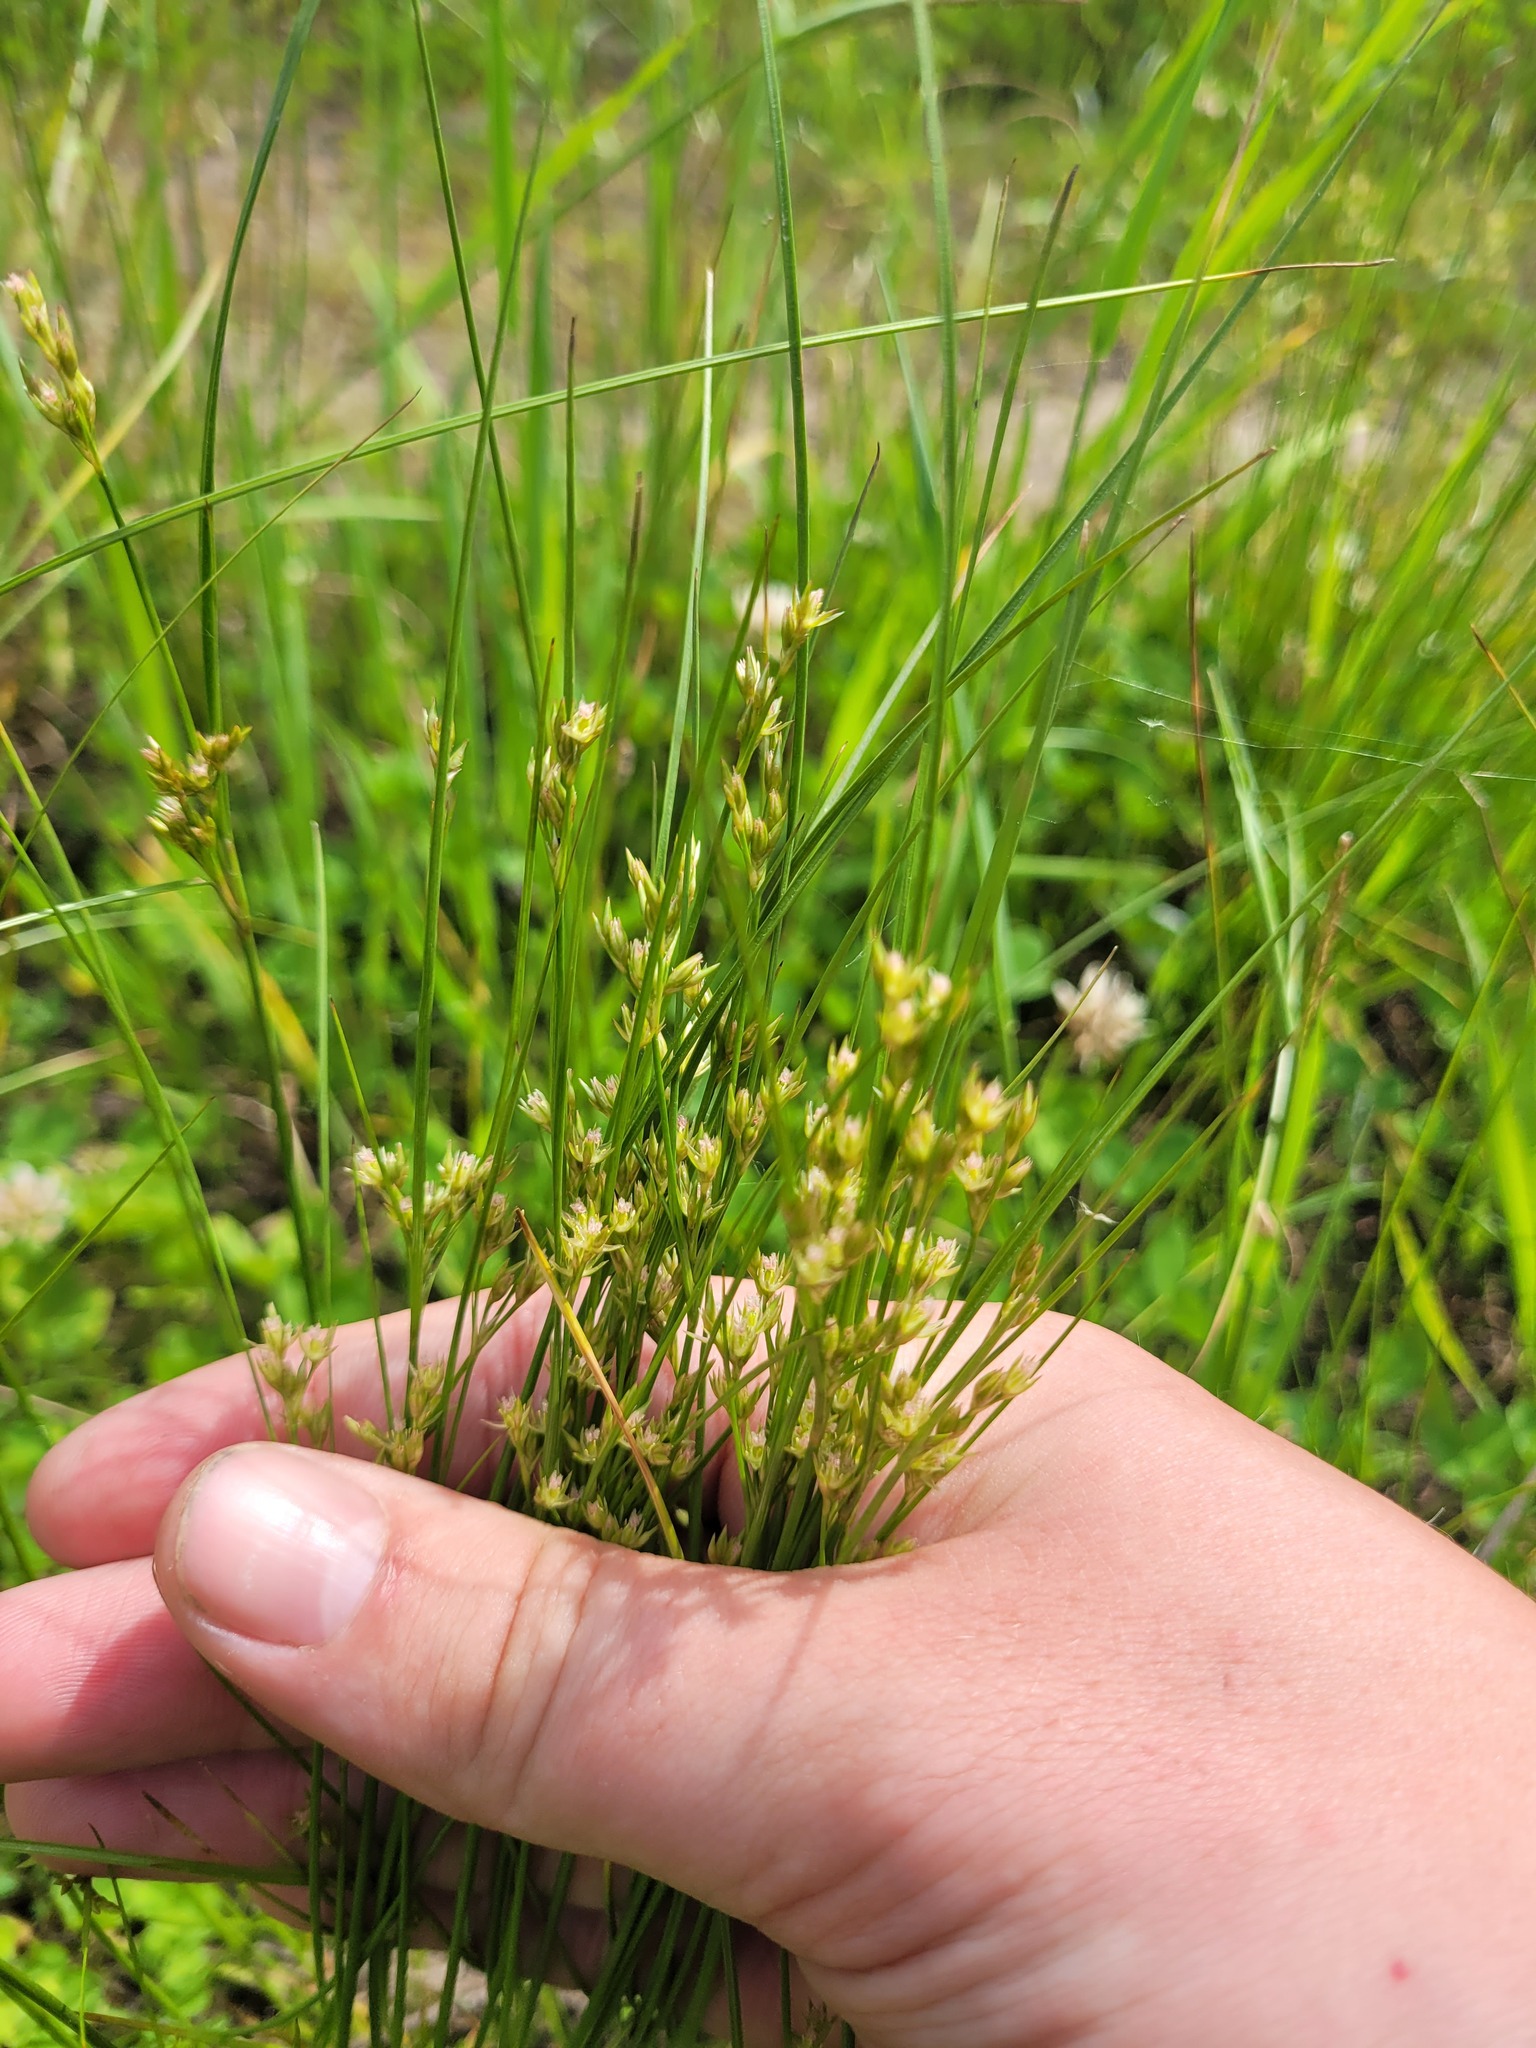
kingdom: Plantae
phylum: Tracheophyta
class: Liliopsida
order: Poales
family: Juncaceae
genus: Juncus
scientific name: Juncus tenuis
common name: Slender rush
